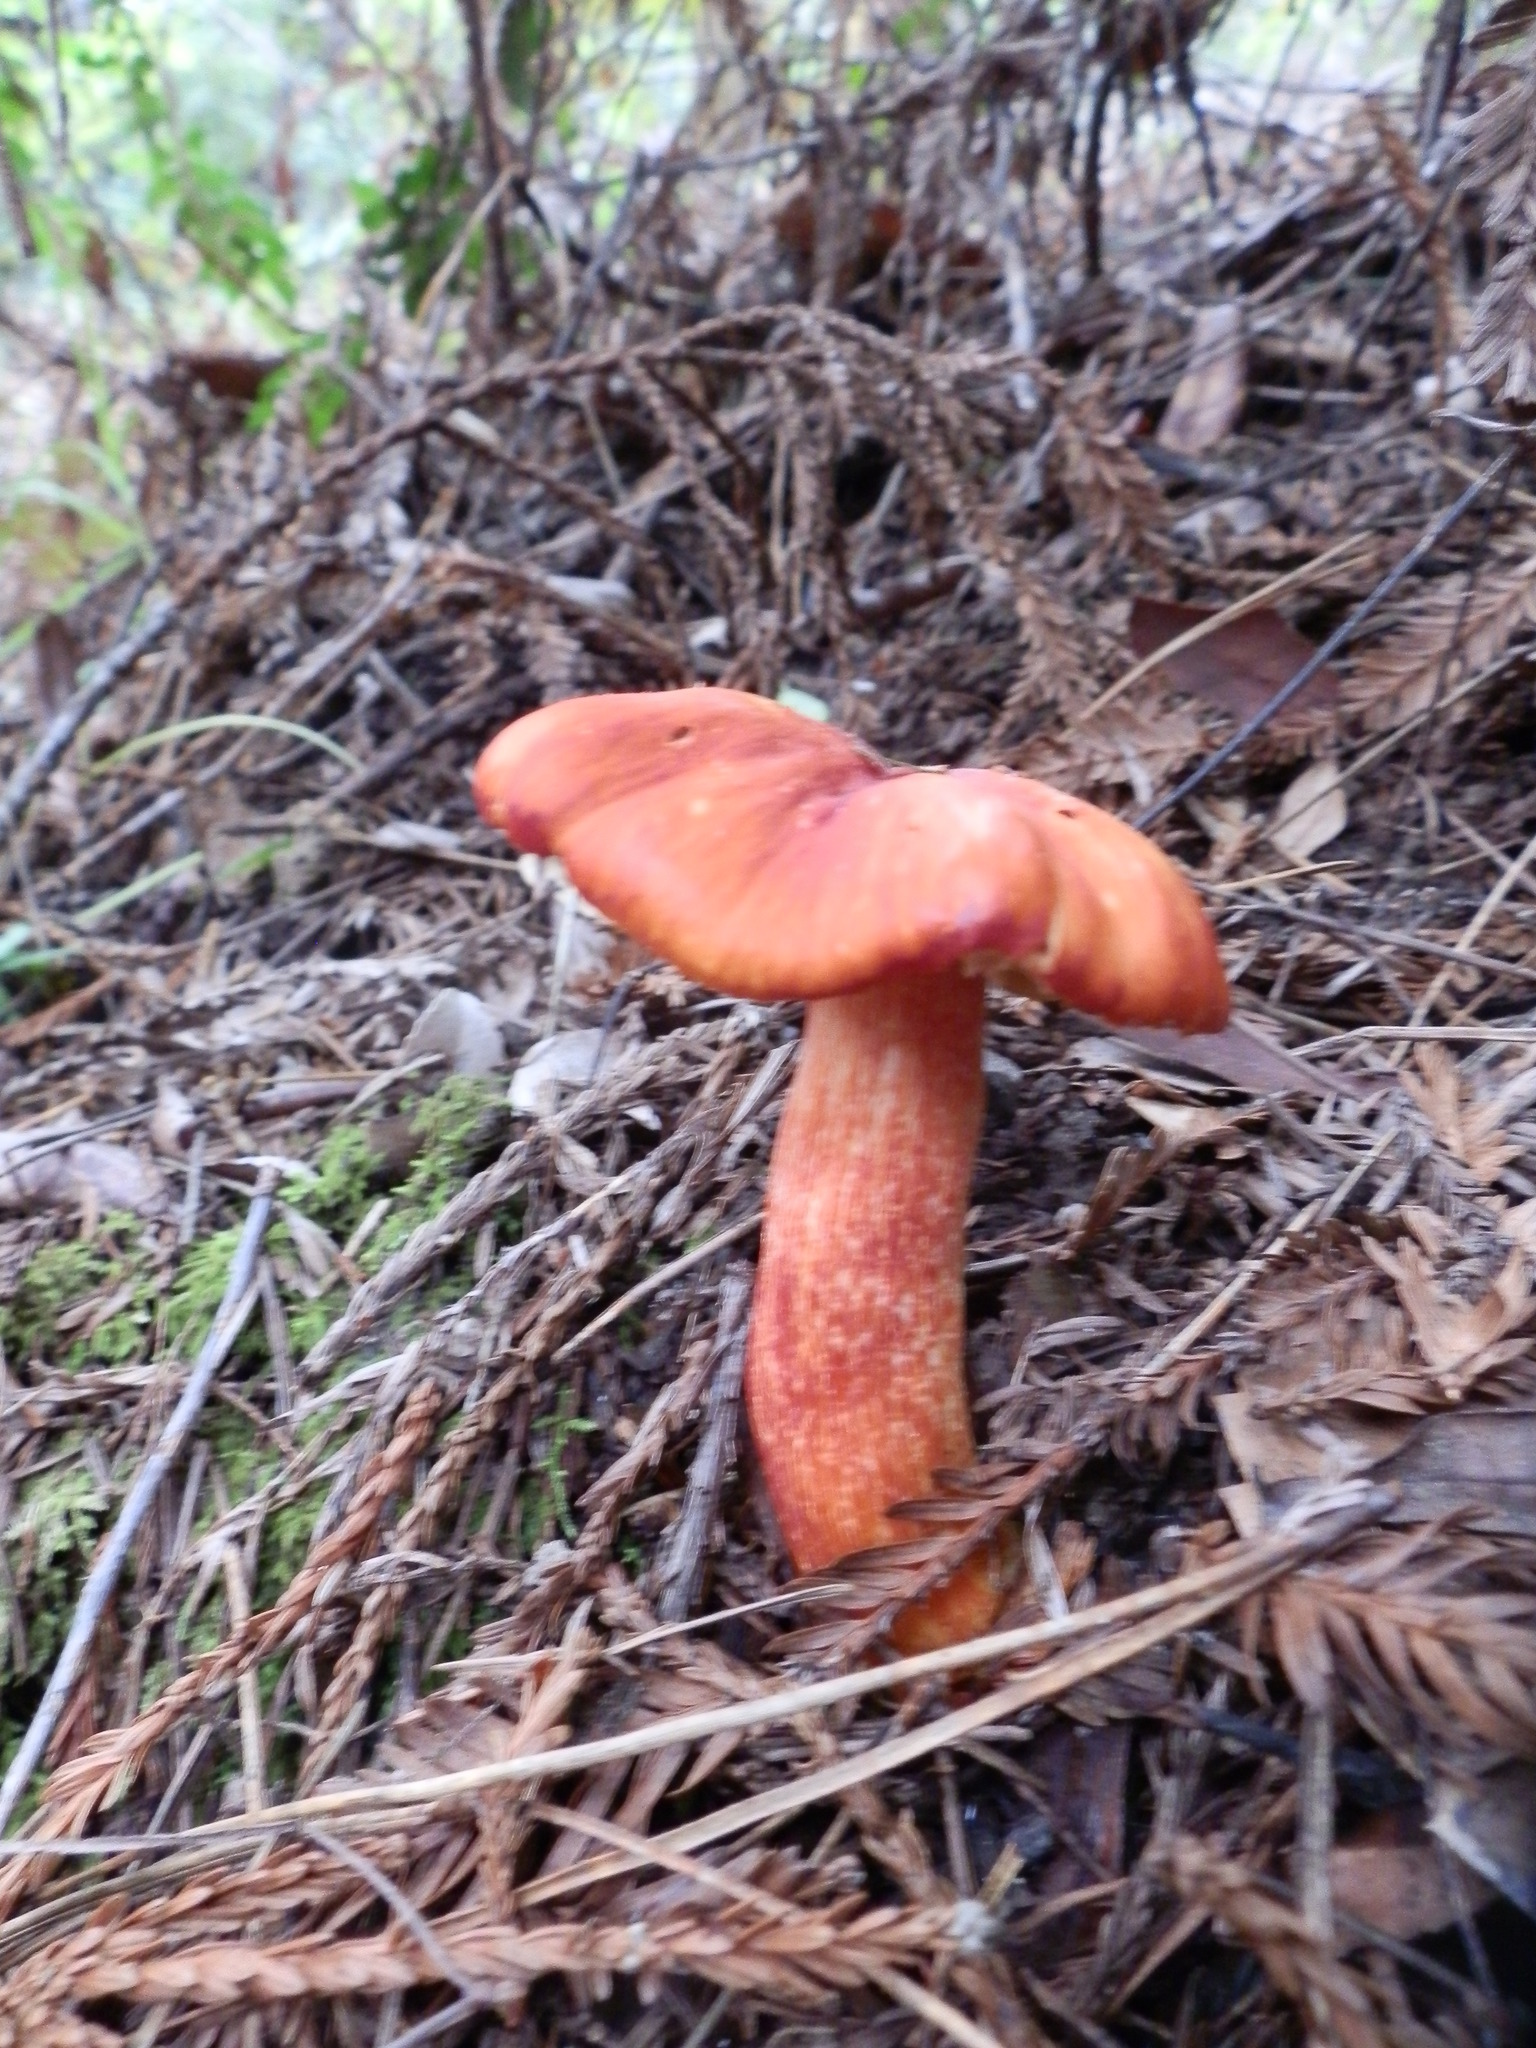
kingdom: Fungi
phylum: Basidiomycota
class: Agaricomycetes
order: Agaricales
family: Hygrophoraceae
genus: Hygrocybe
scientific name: Hygrocybe punicea
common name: Crimson waxcap
